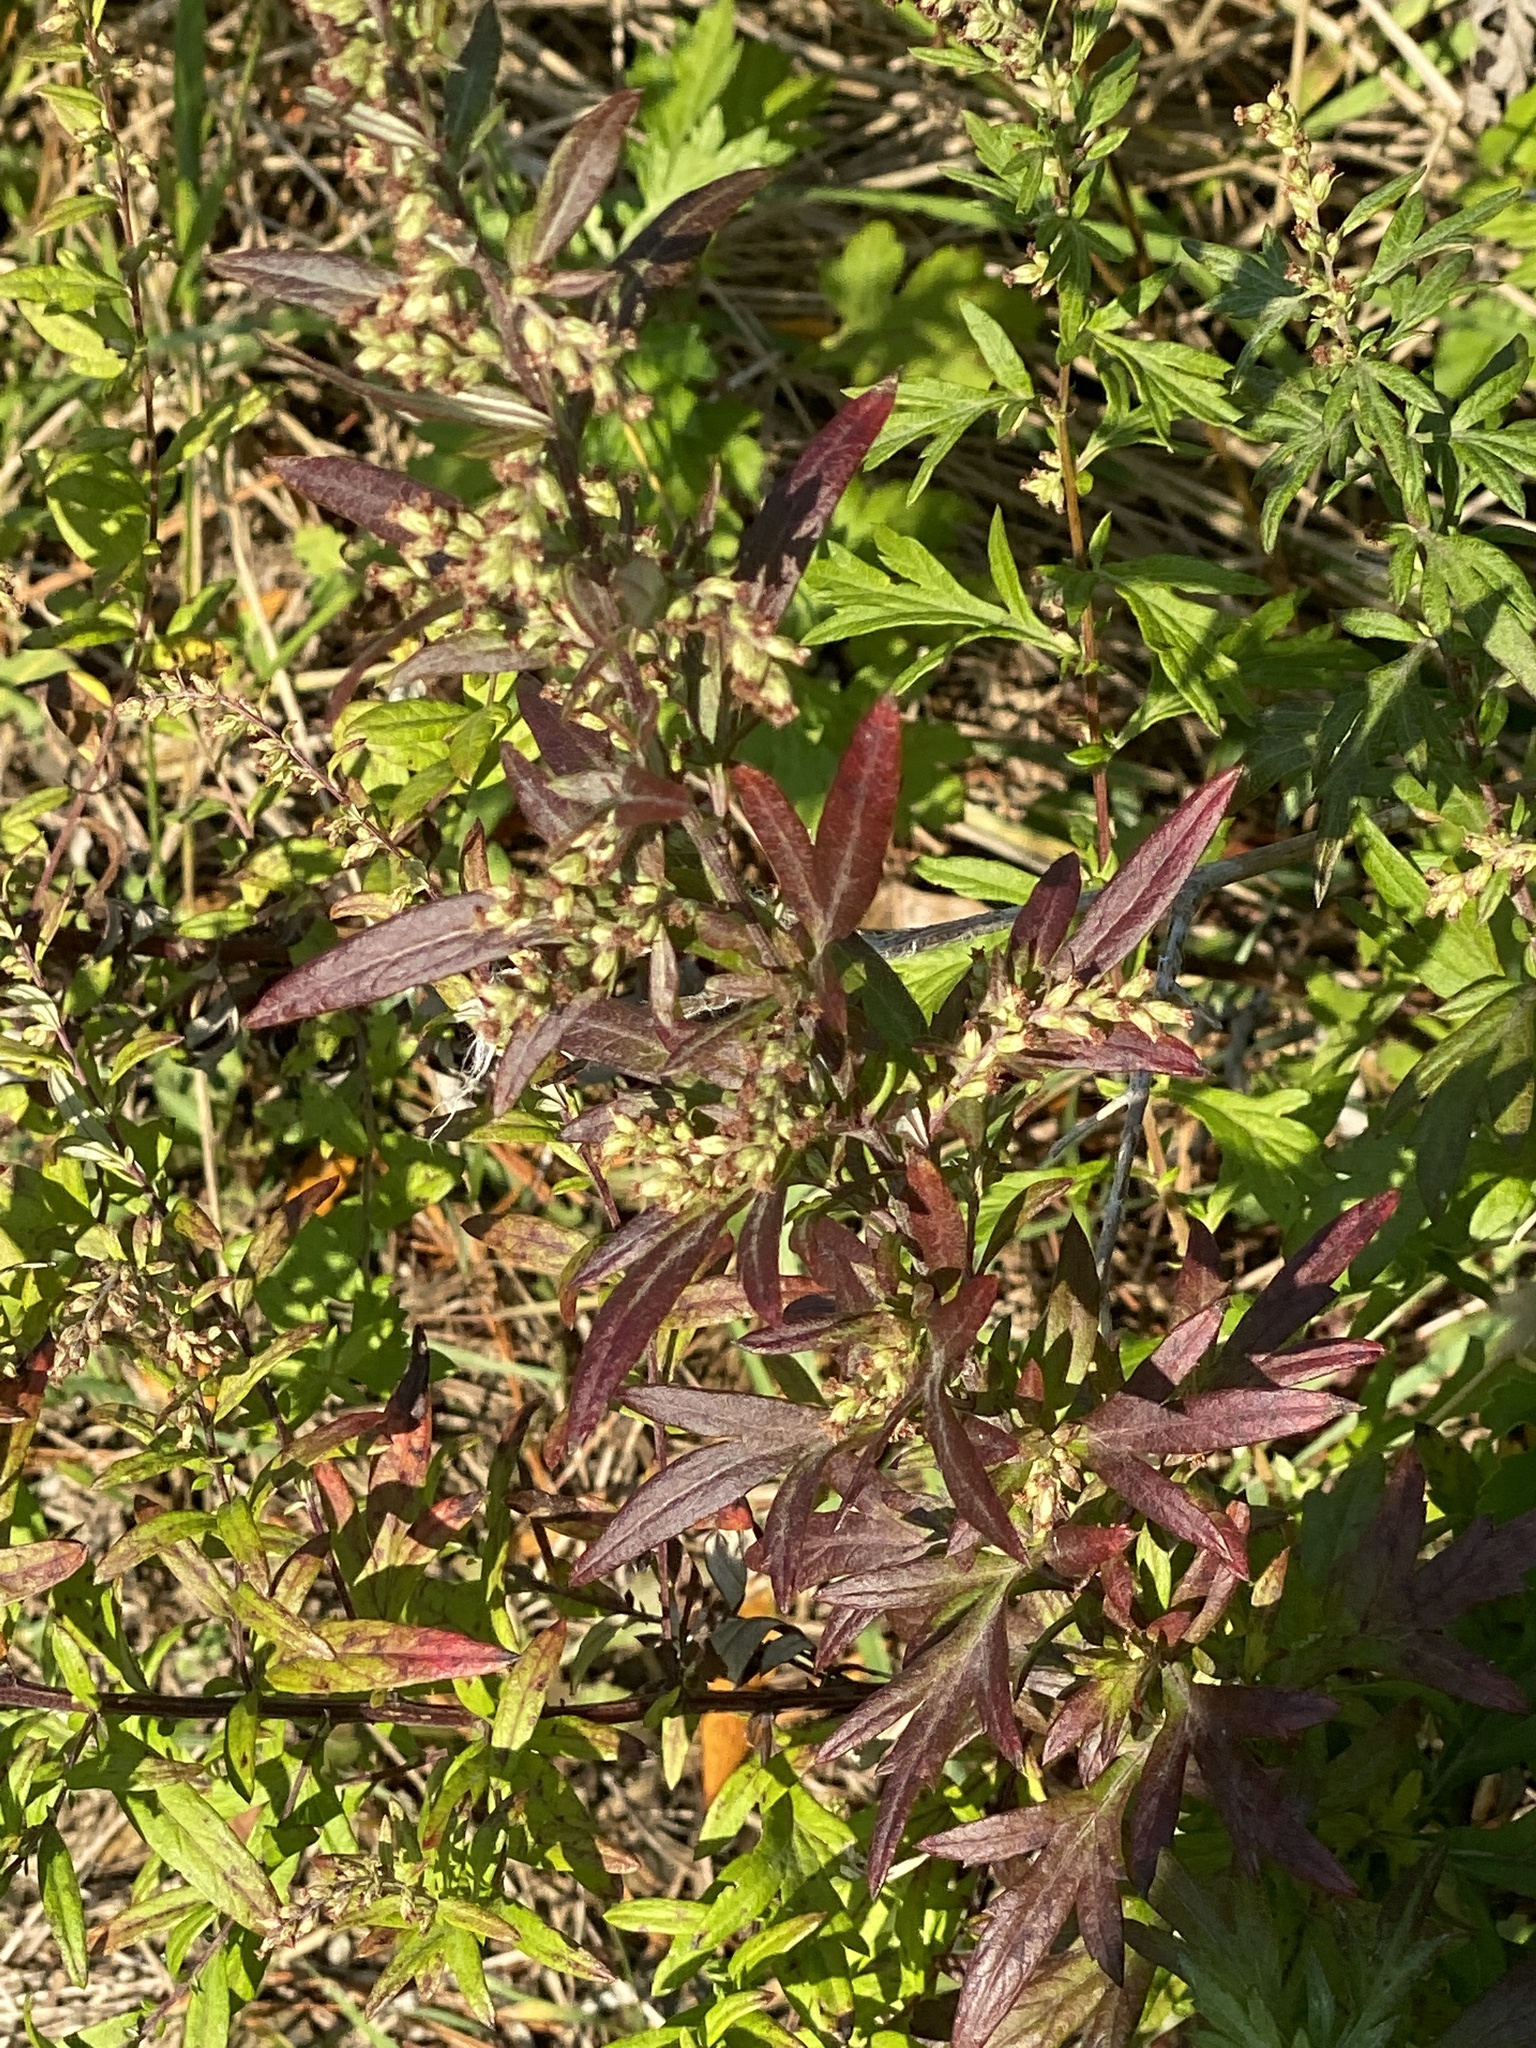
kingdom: Plantae
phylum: Tracheophyta
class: Magnoliopsida
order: Asterales
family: Asteraceae
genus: Artemisia
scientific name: Artemisia vulgaris
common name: Mugwort
